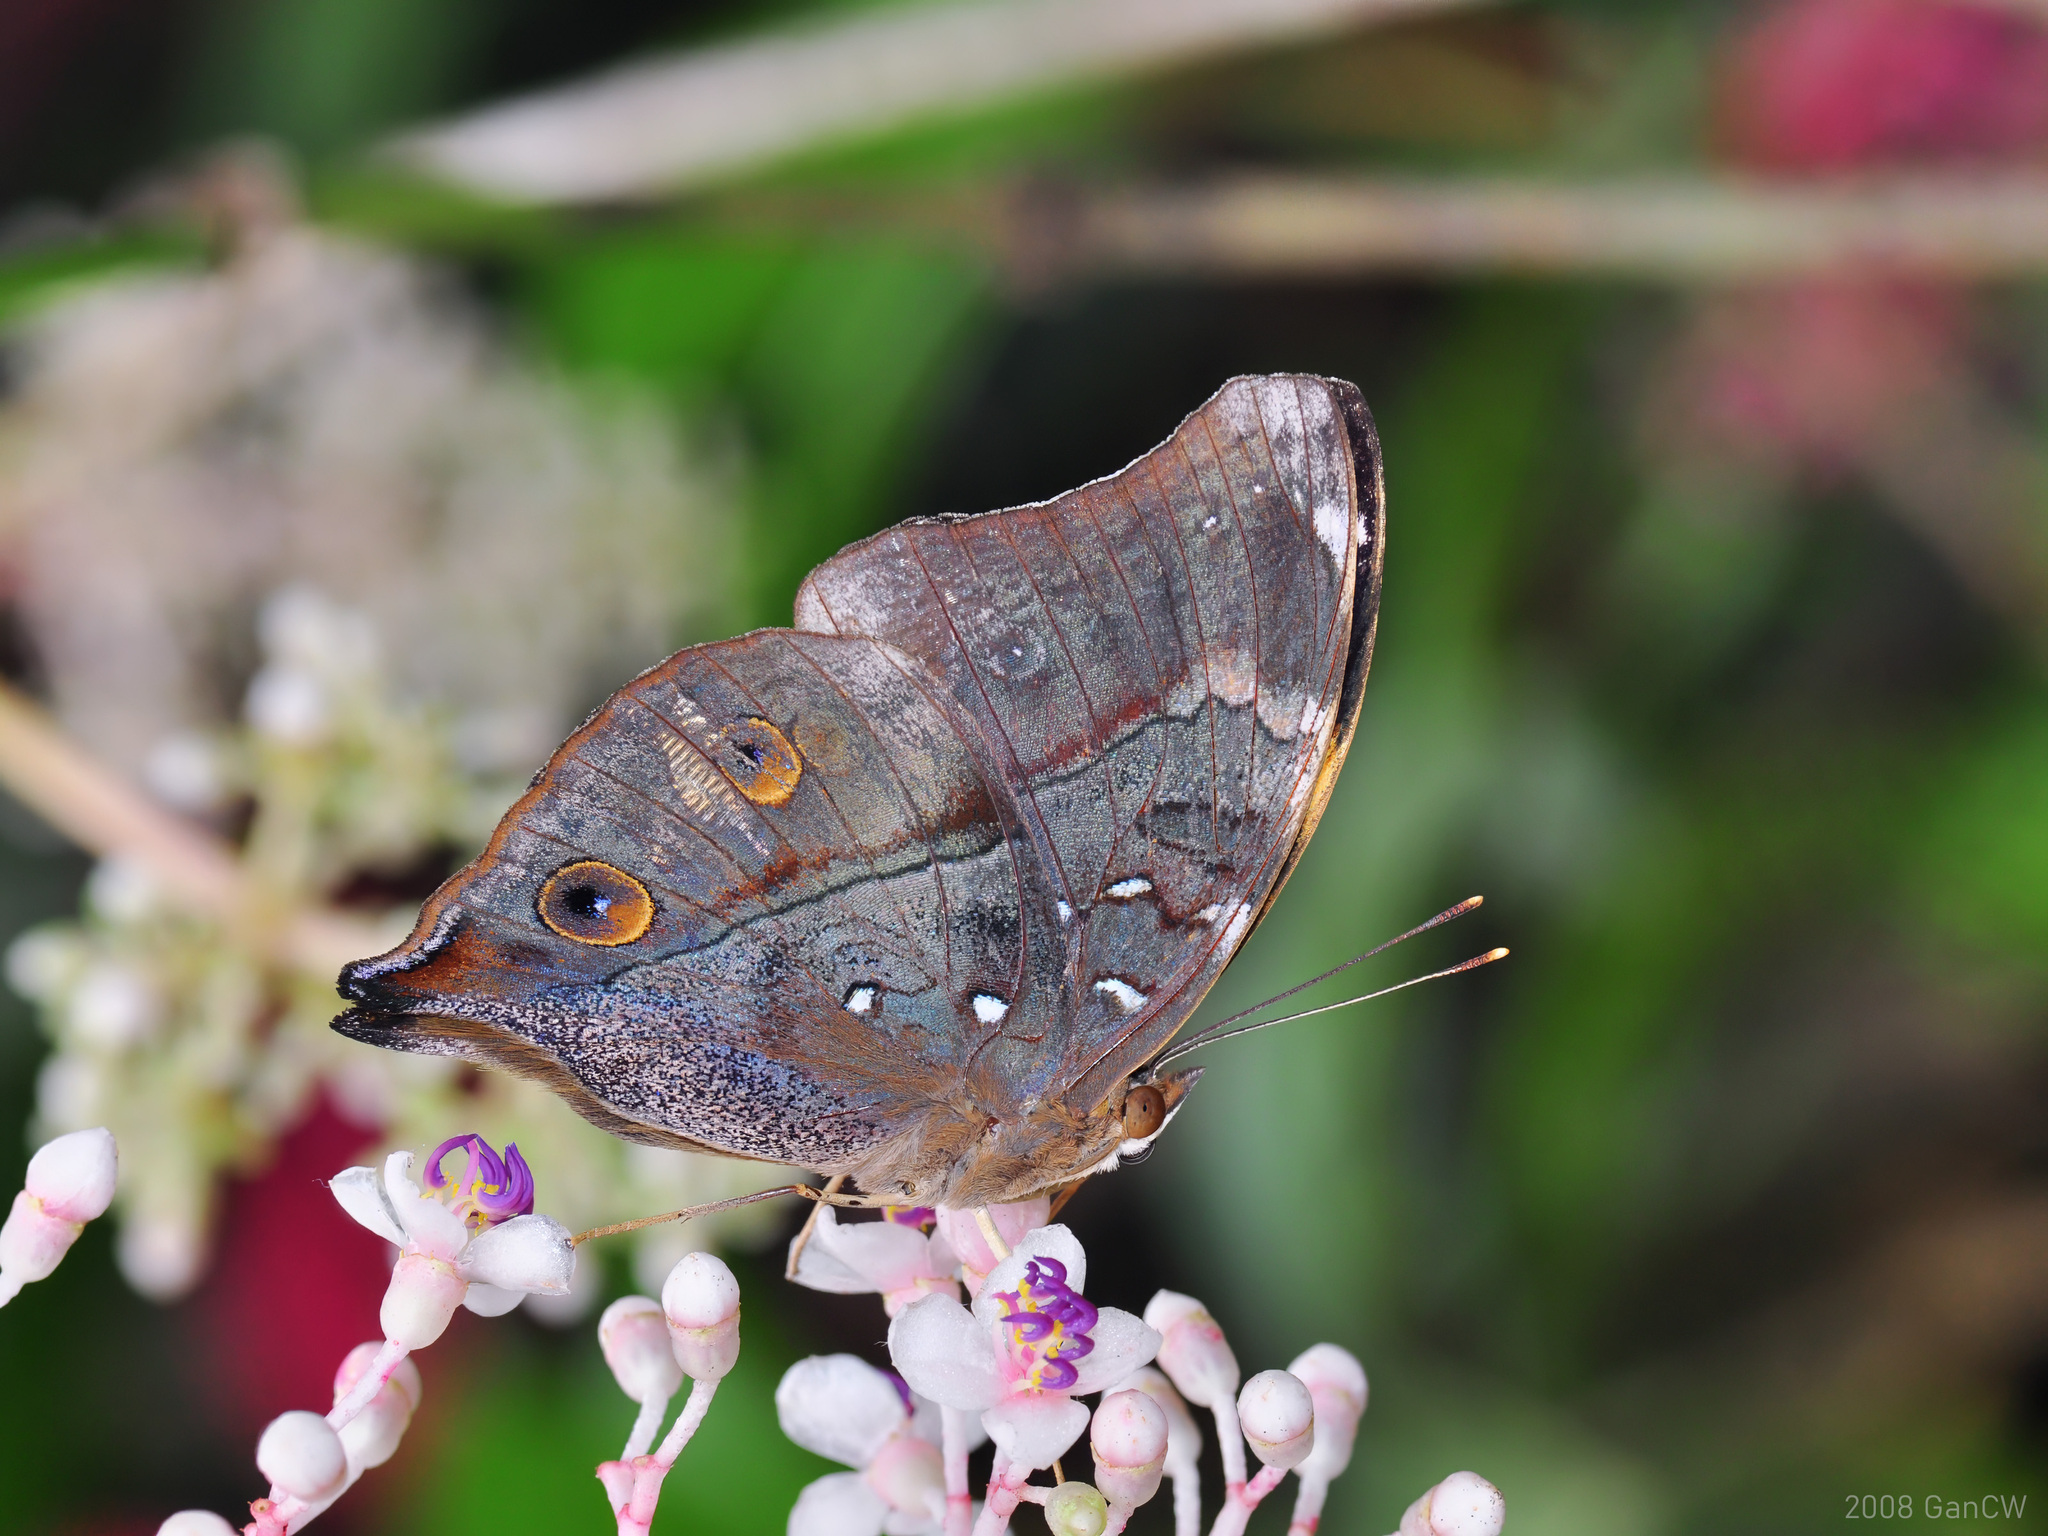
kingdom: Animalia
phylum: Arthropoda
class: Insecta
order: Lepidoptera
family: Nymphalidae
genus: Doleschallia
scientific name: Doleschallia bisaltide
